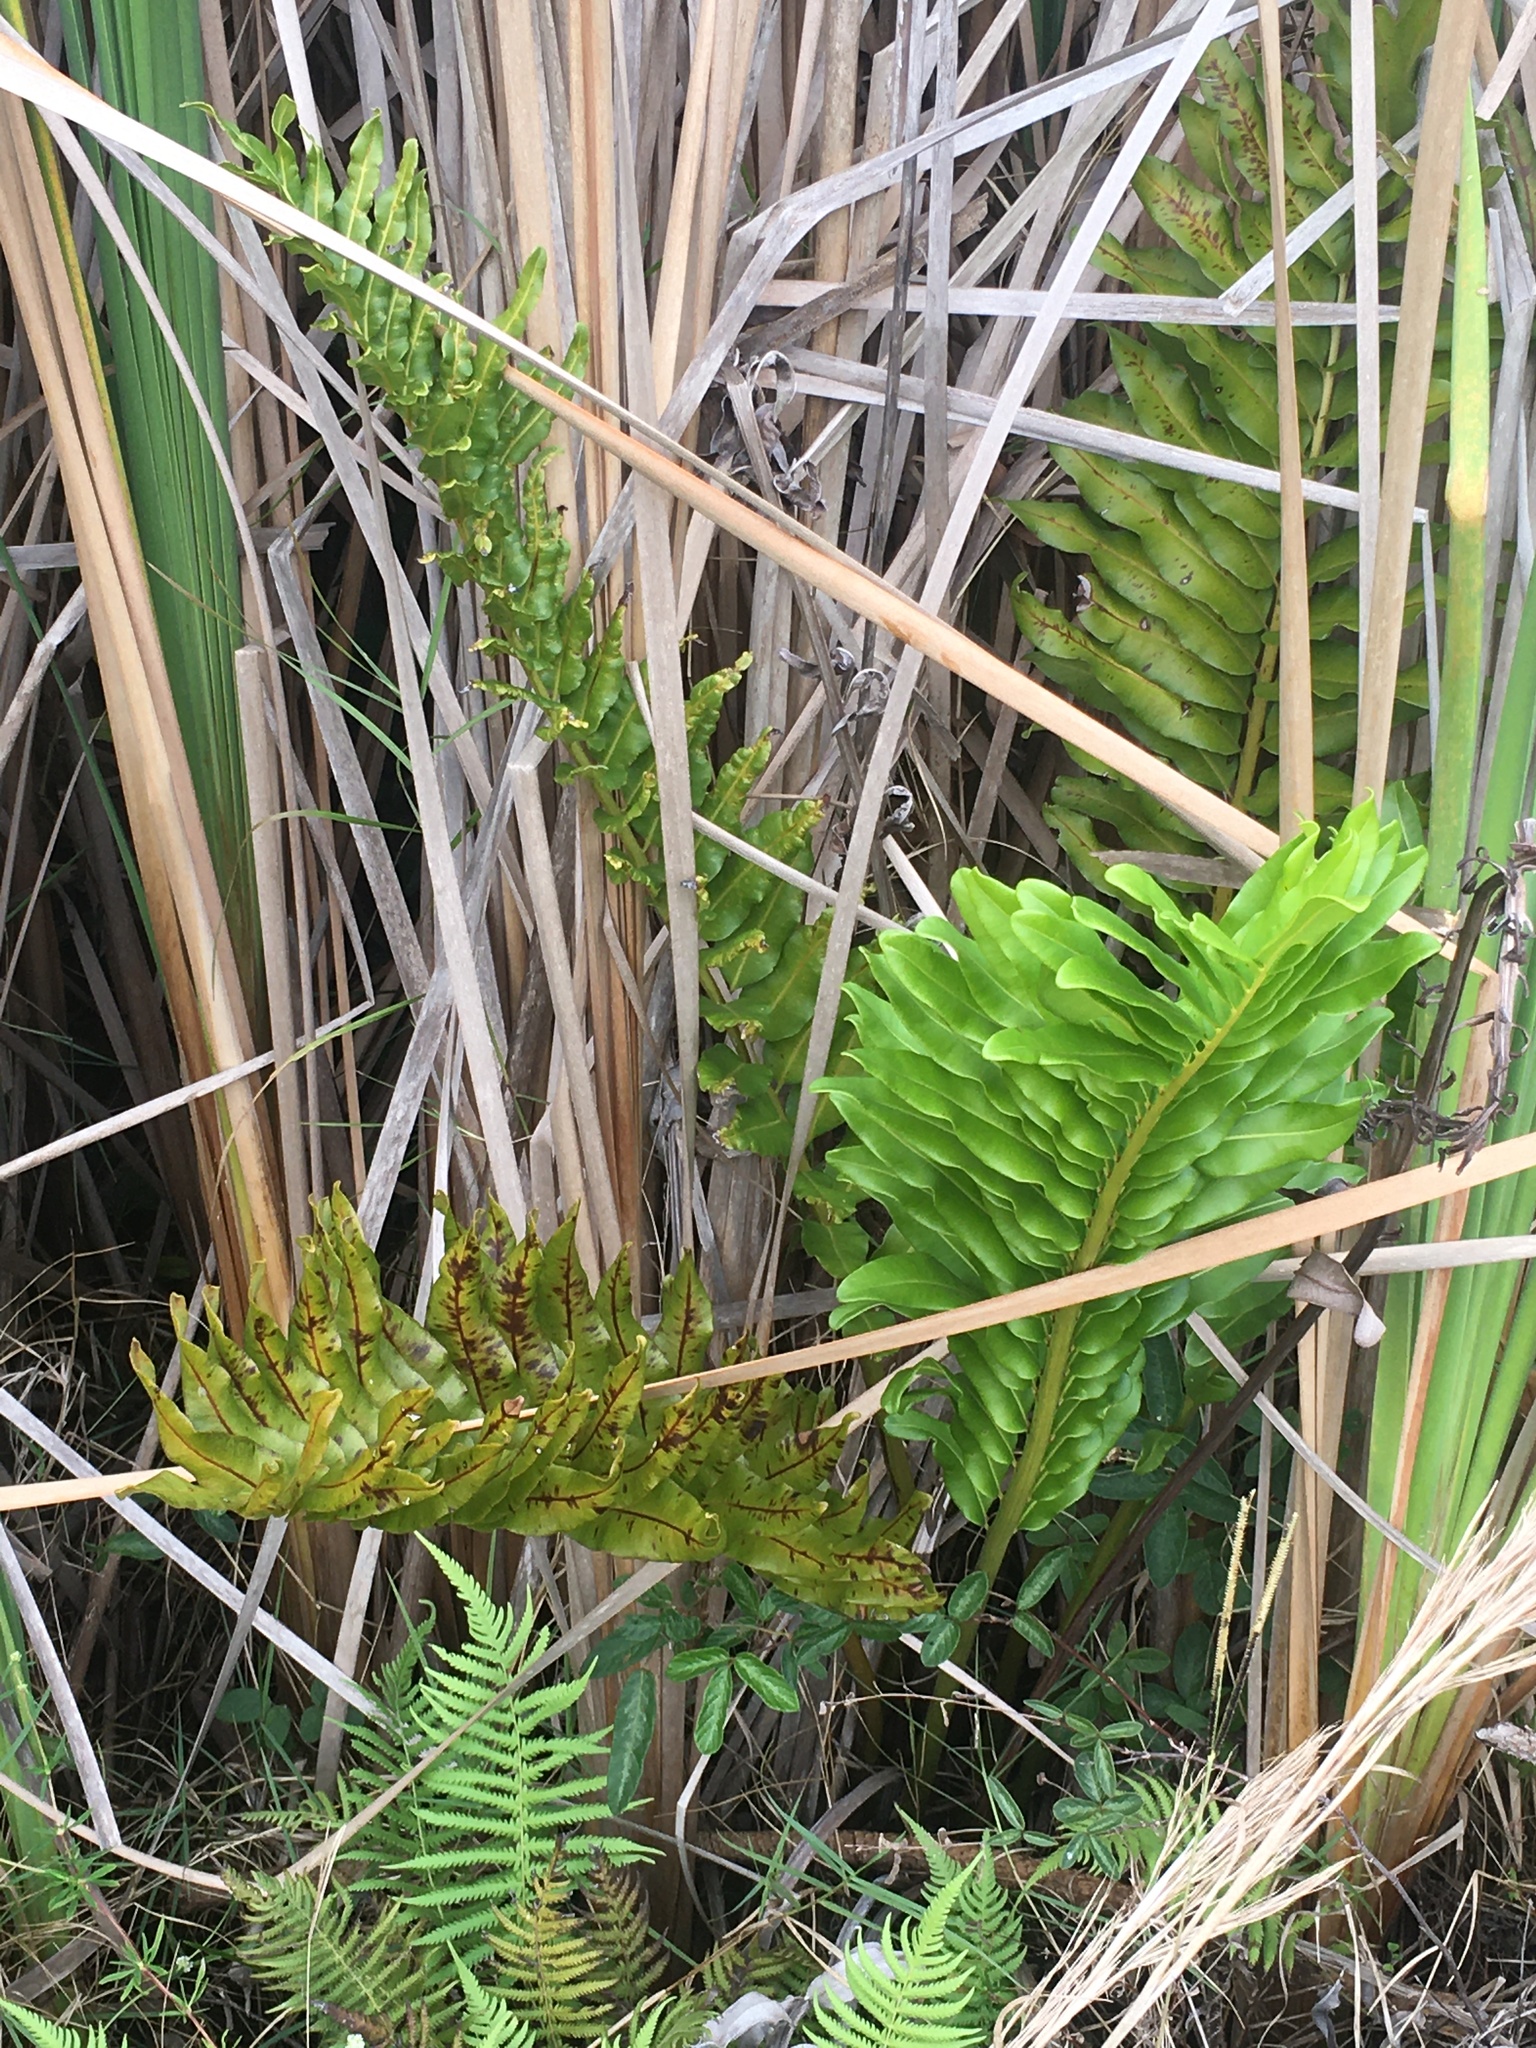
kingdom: Plantae
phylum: Tracheophyta
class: Polypodiopsida
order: Polypodiales
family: Pteridaceae
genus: Acrostichum
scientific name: Acrostichum danaeifolium
